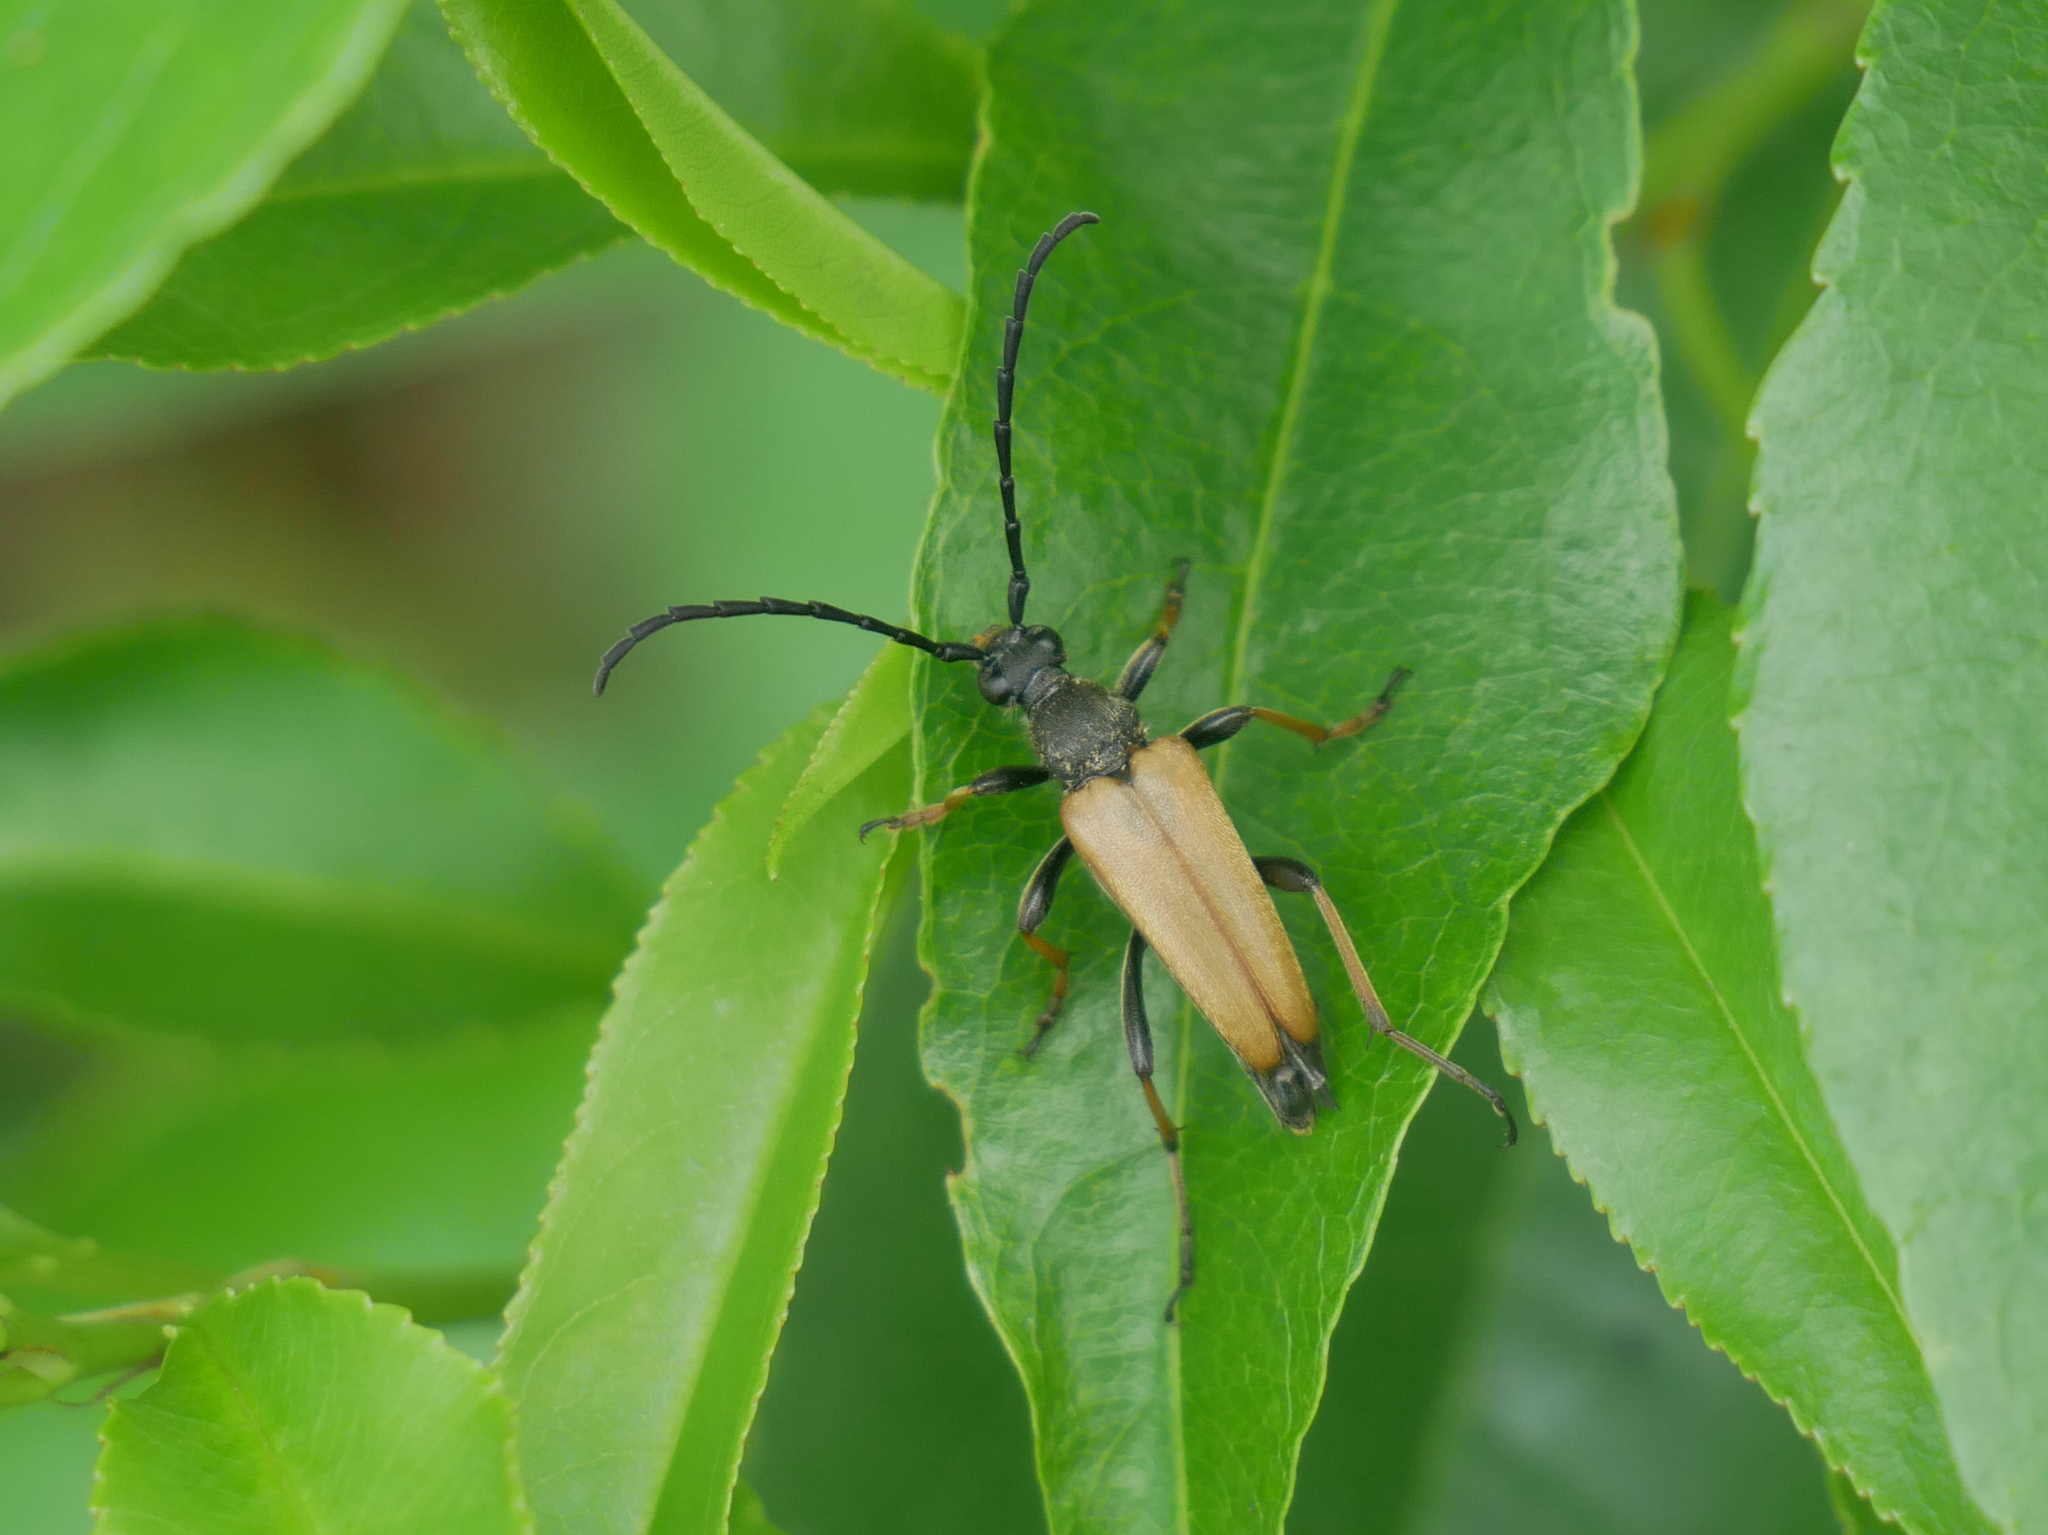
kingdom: Animalia
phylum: Arthropoda
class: Insecta
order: Coleoptera
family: Cerambycidae
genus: Stictoleptura
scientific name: Stictoleptura rubra
